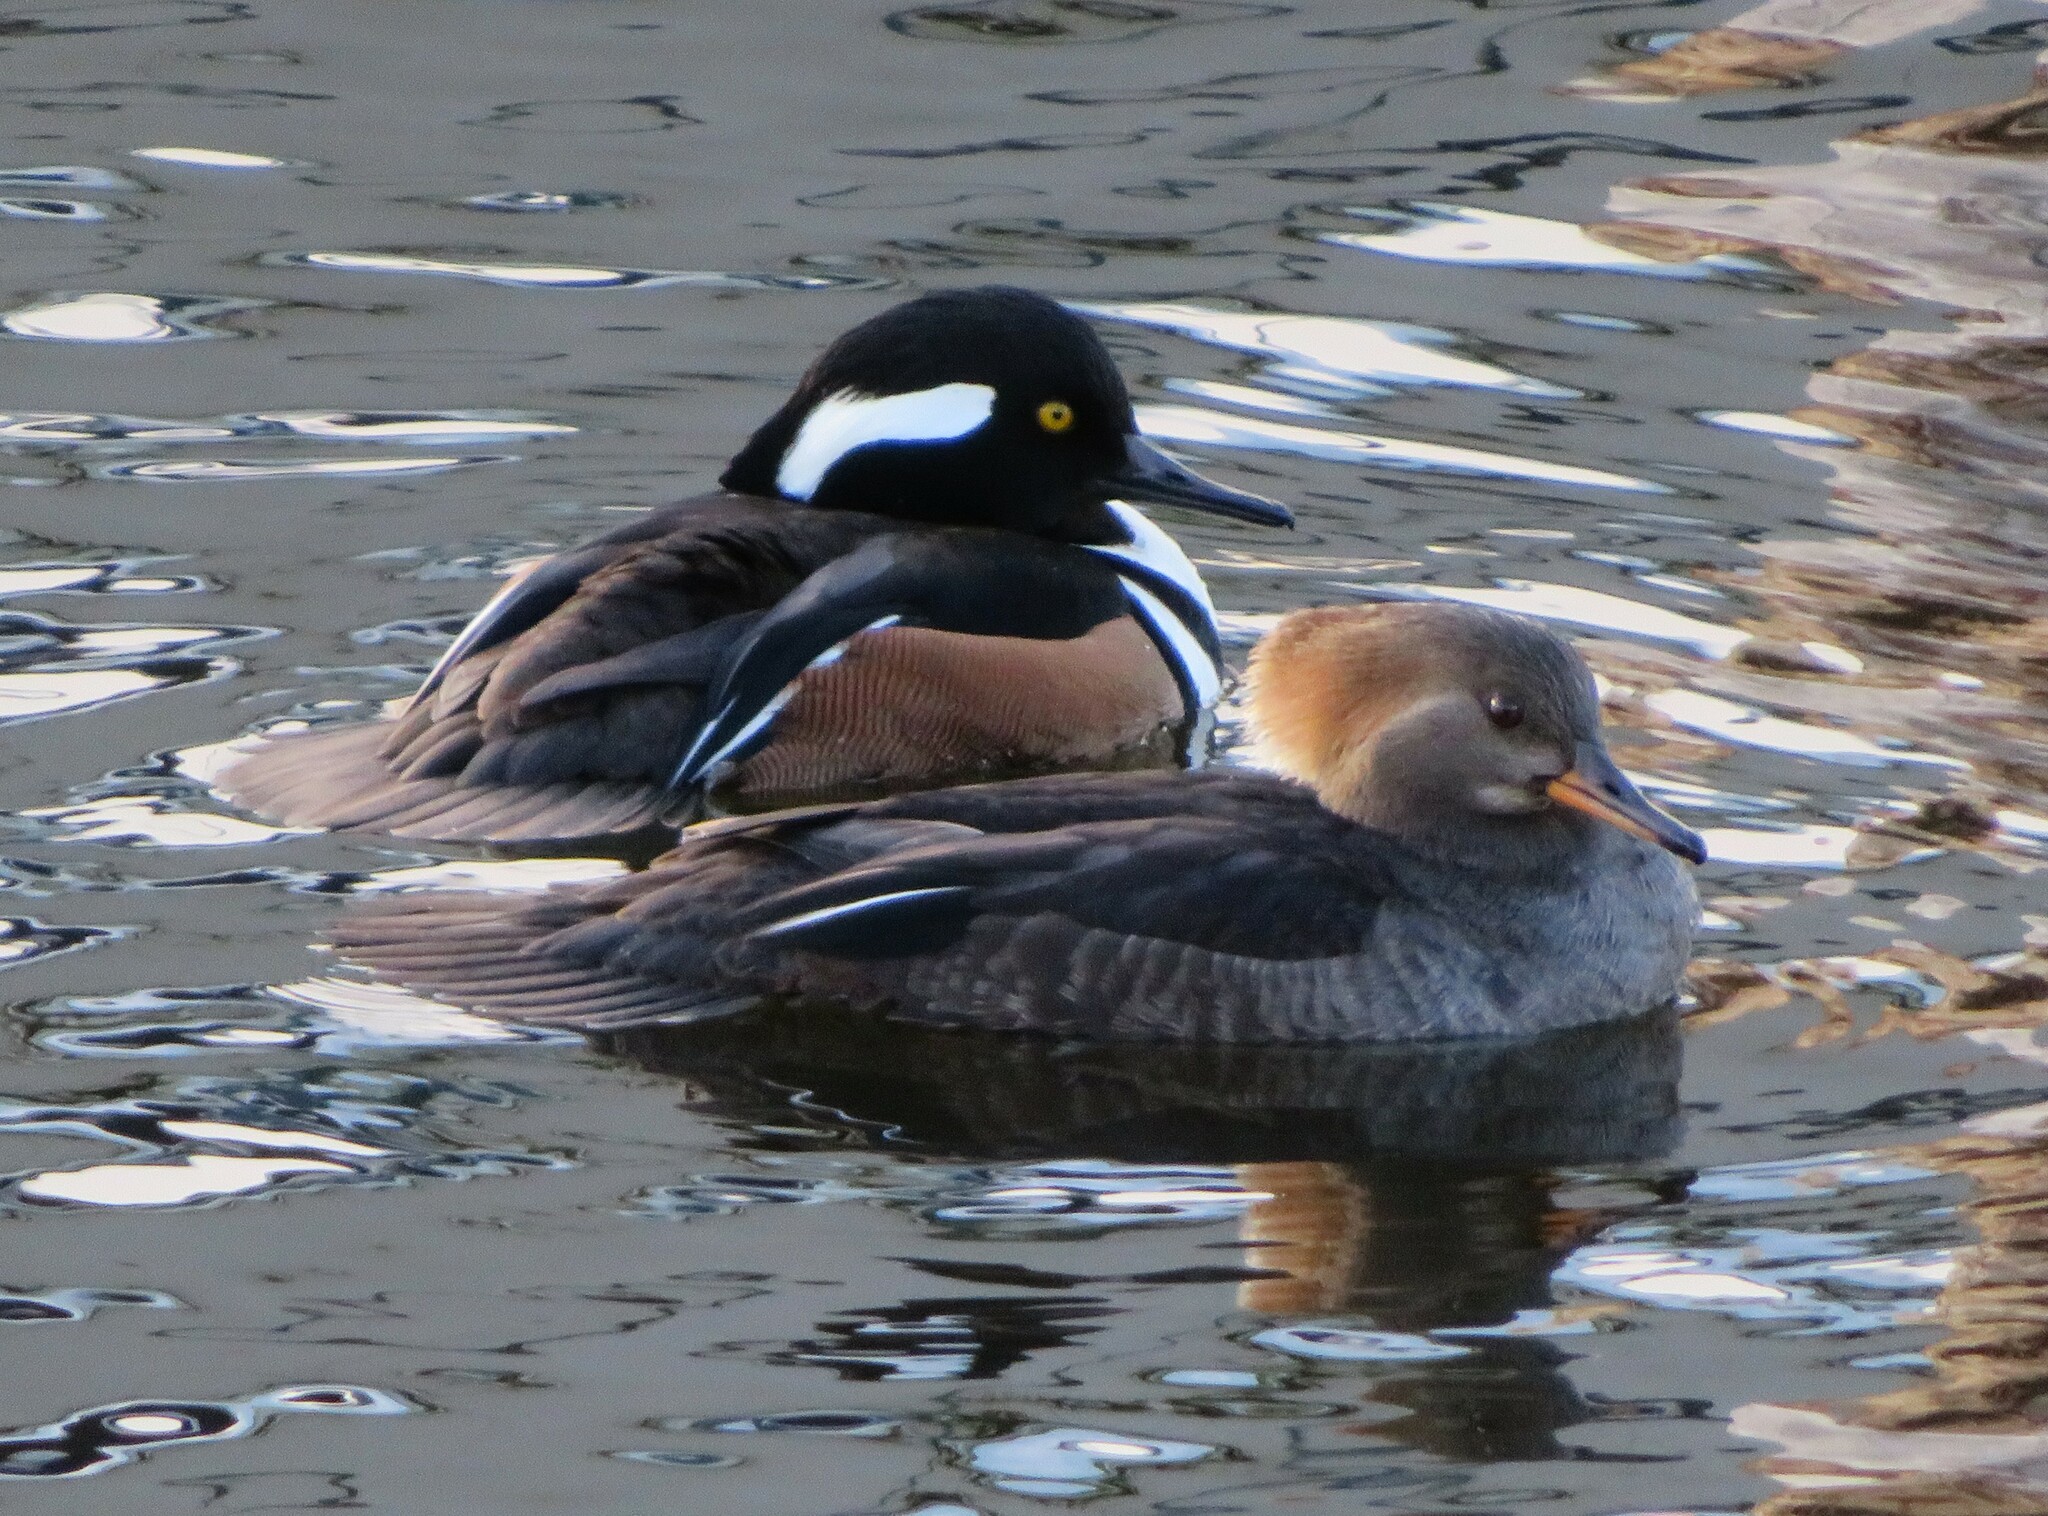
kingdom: Animalia
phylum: Chordata
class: Aves
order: Anseriformes
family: Anatidae
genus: Lophodytes
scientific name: Lophodytes cucullatus
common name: Hooded merganser
